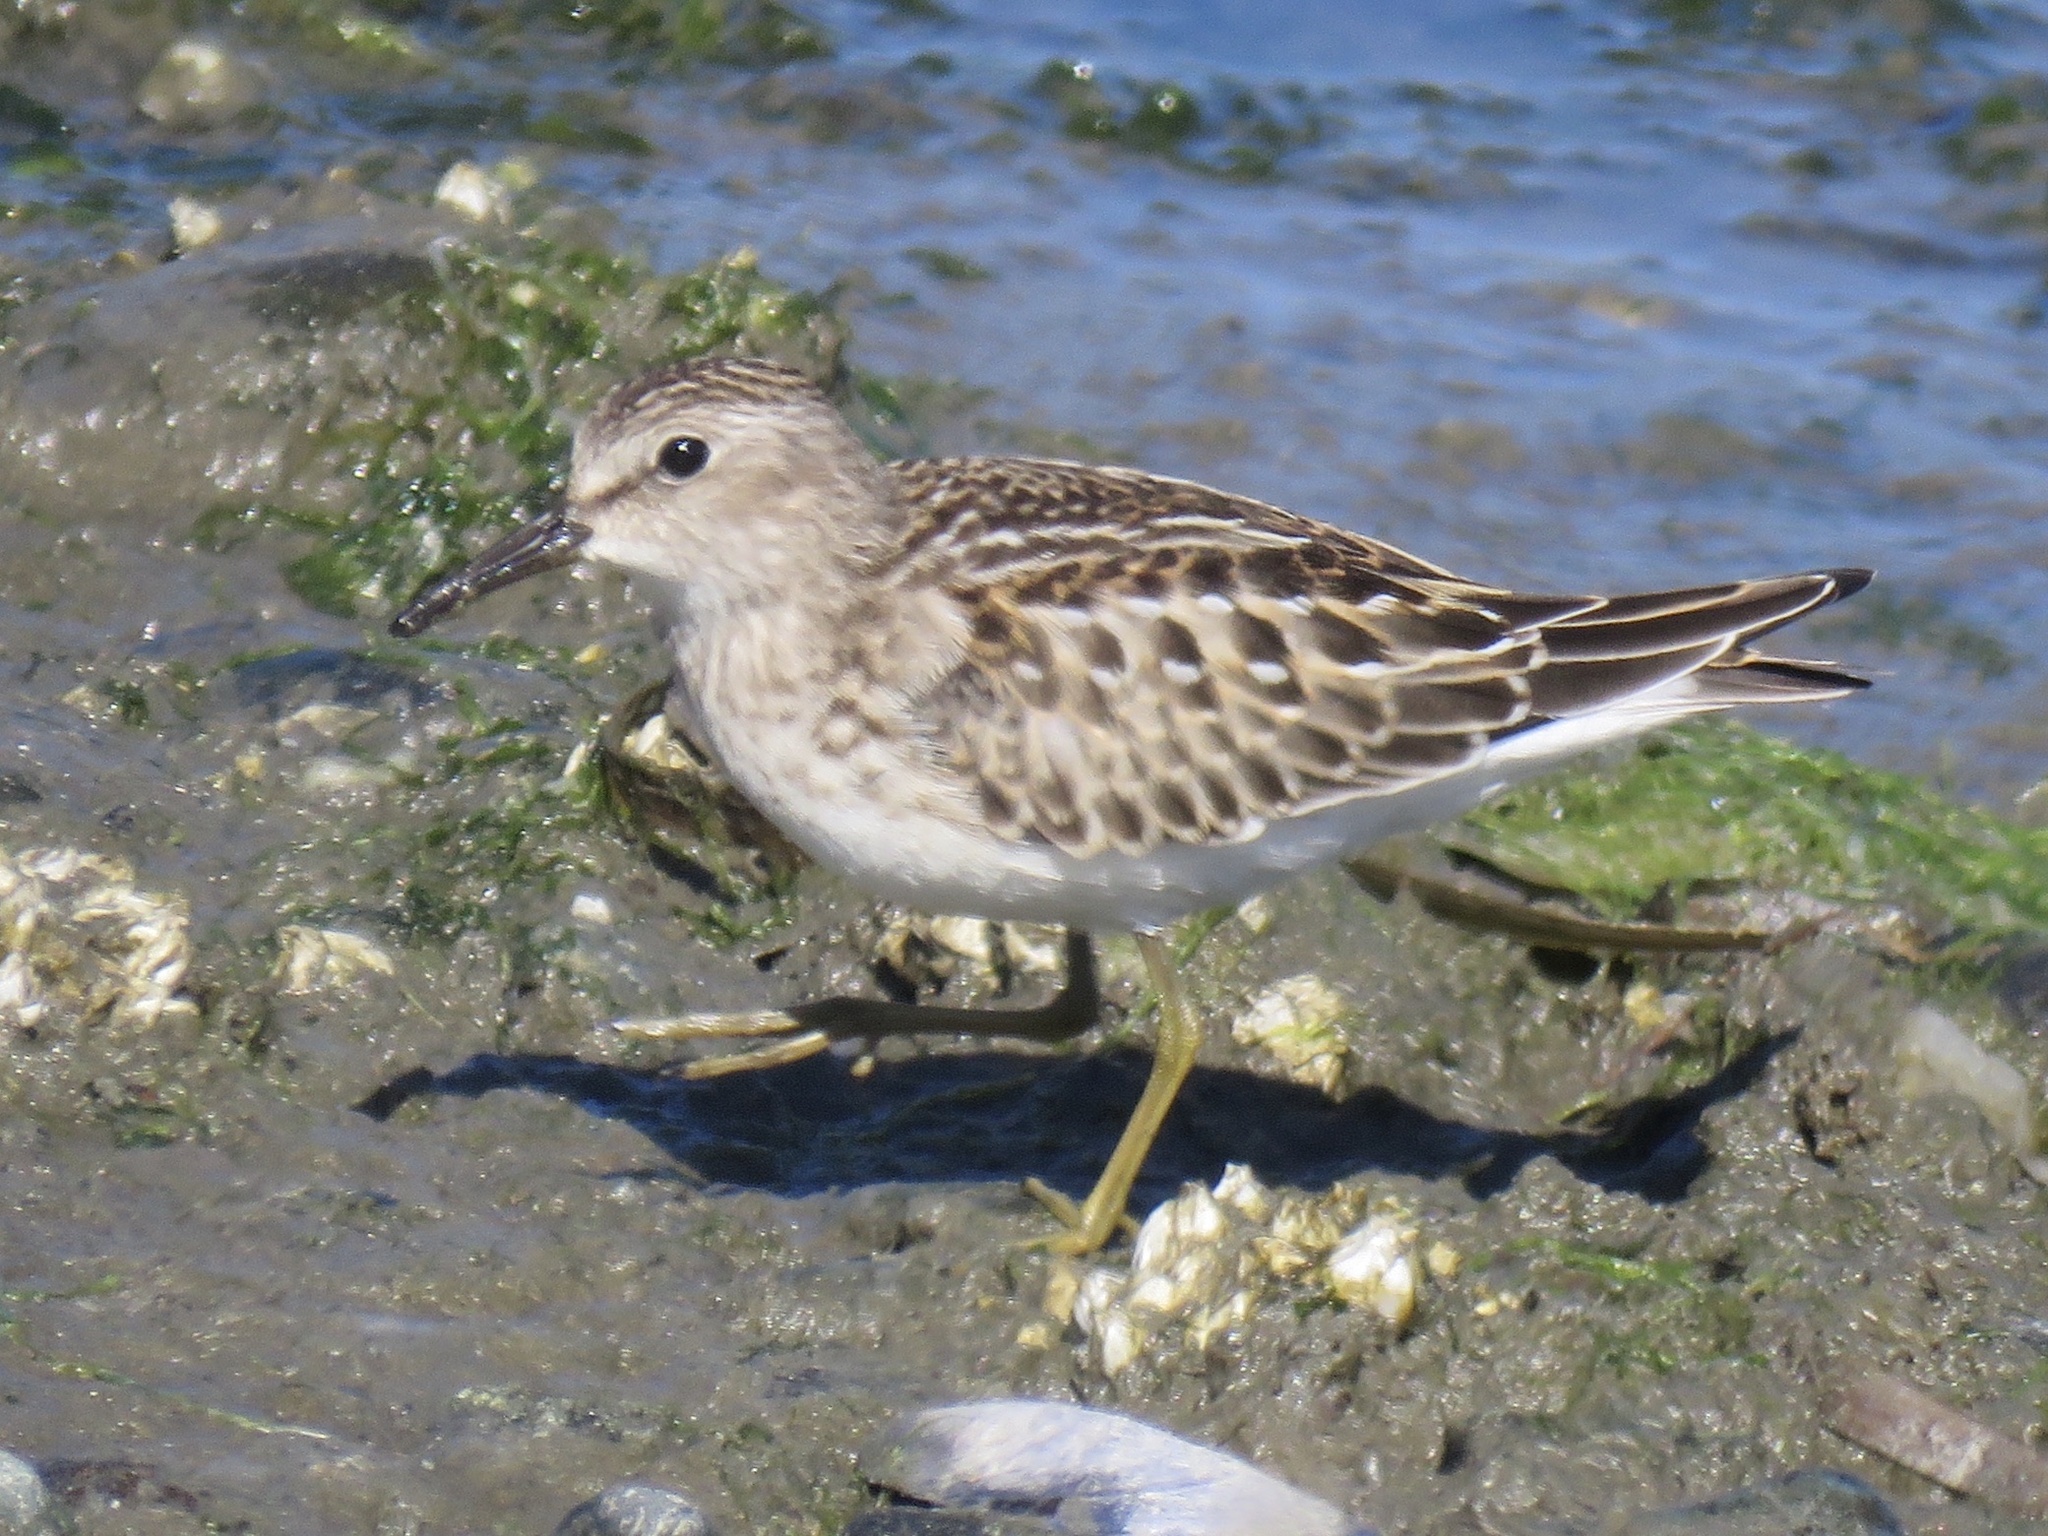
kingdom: Animalia
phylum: Chordata
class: Aves
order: Charadriiformes
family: Scolopacidae
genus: Calidris
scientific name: Calidris minutilla
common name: Least sandpiper
